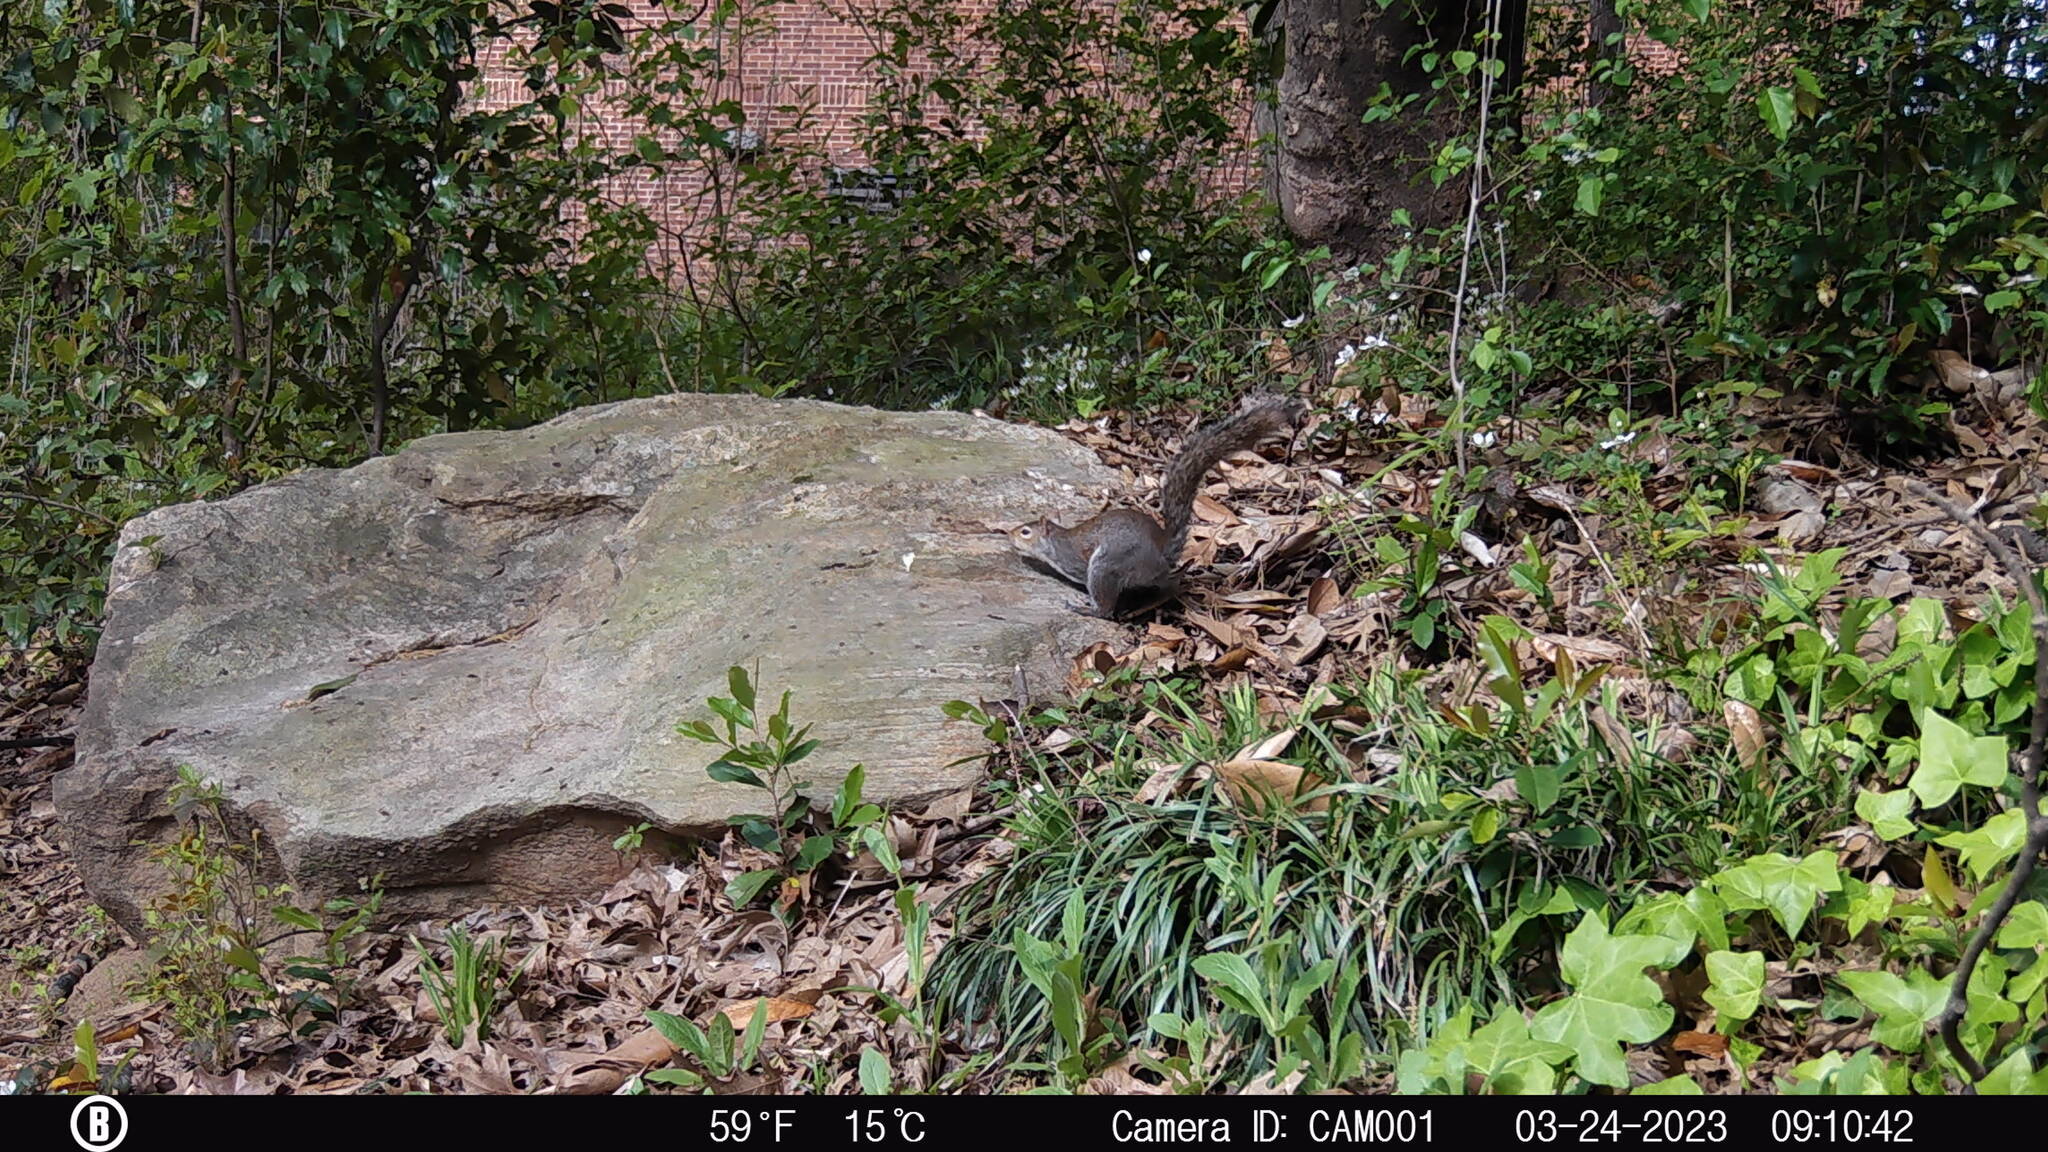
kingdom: Animalia
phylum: Chordata
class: Mammalia
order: Rodentia
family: Sciuridae
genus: Sciurus
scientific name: Sciurus carolinensis
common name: Eastern gray squirrel
